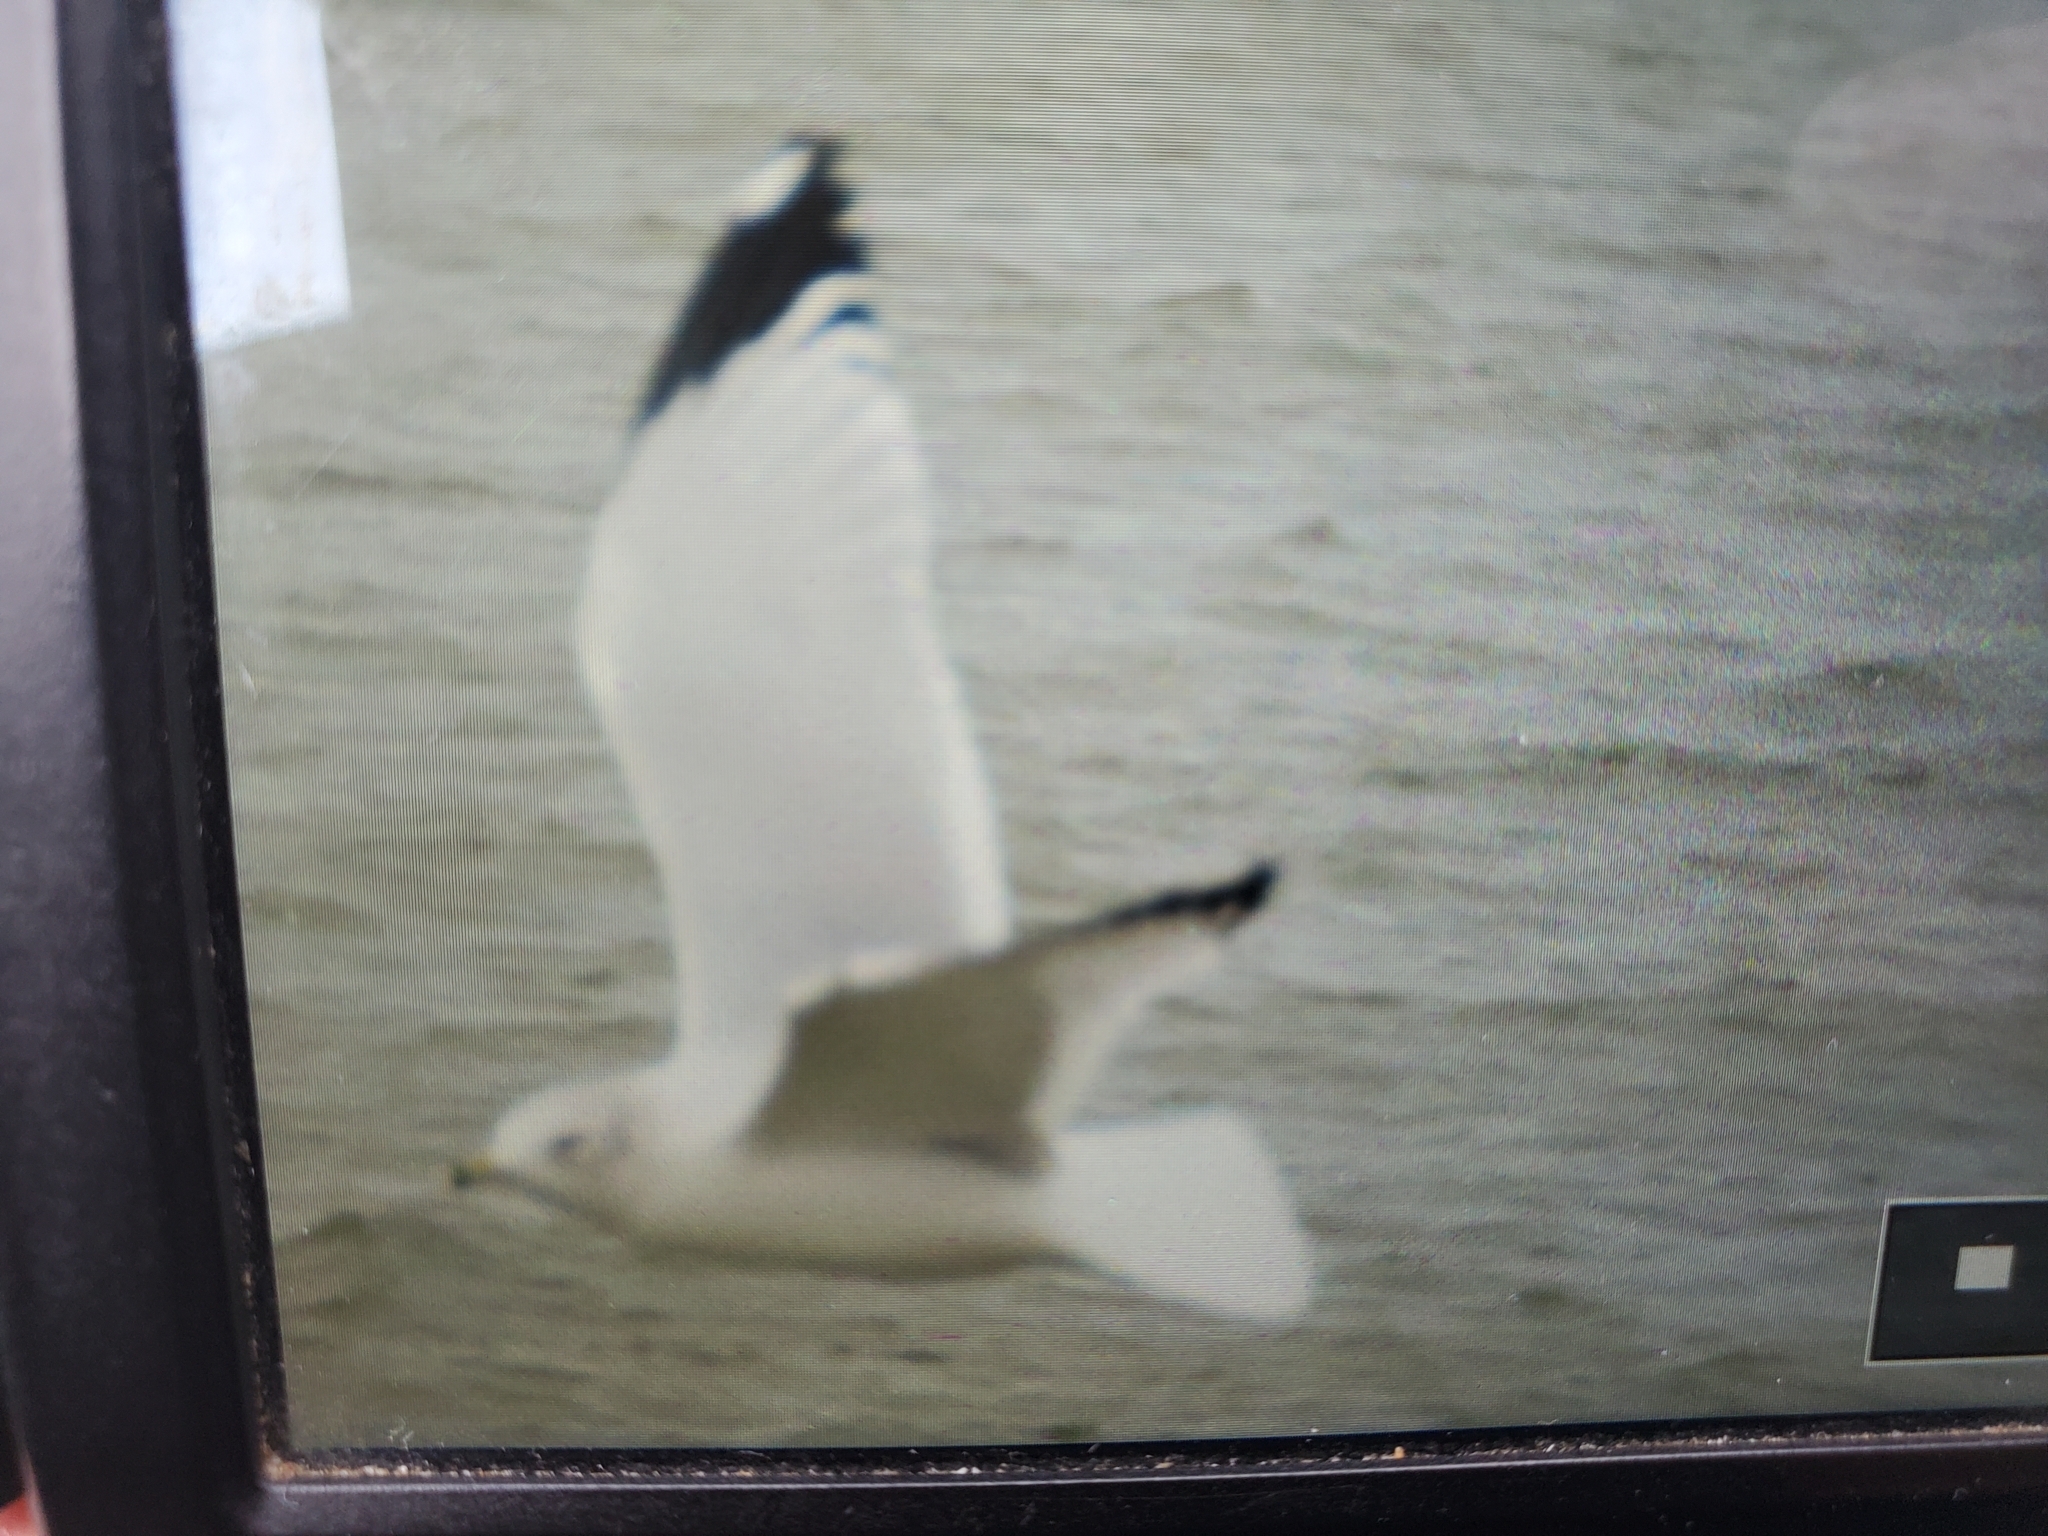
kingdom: Animalia
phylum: Chordata
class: Aves
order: Charadriiformes
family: Laridae
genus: Larus
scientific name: Larus delawarensis
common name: Ring-billed gull
